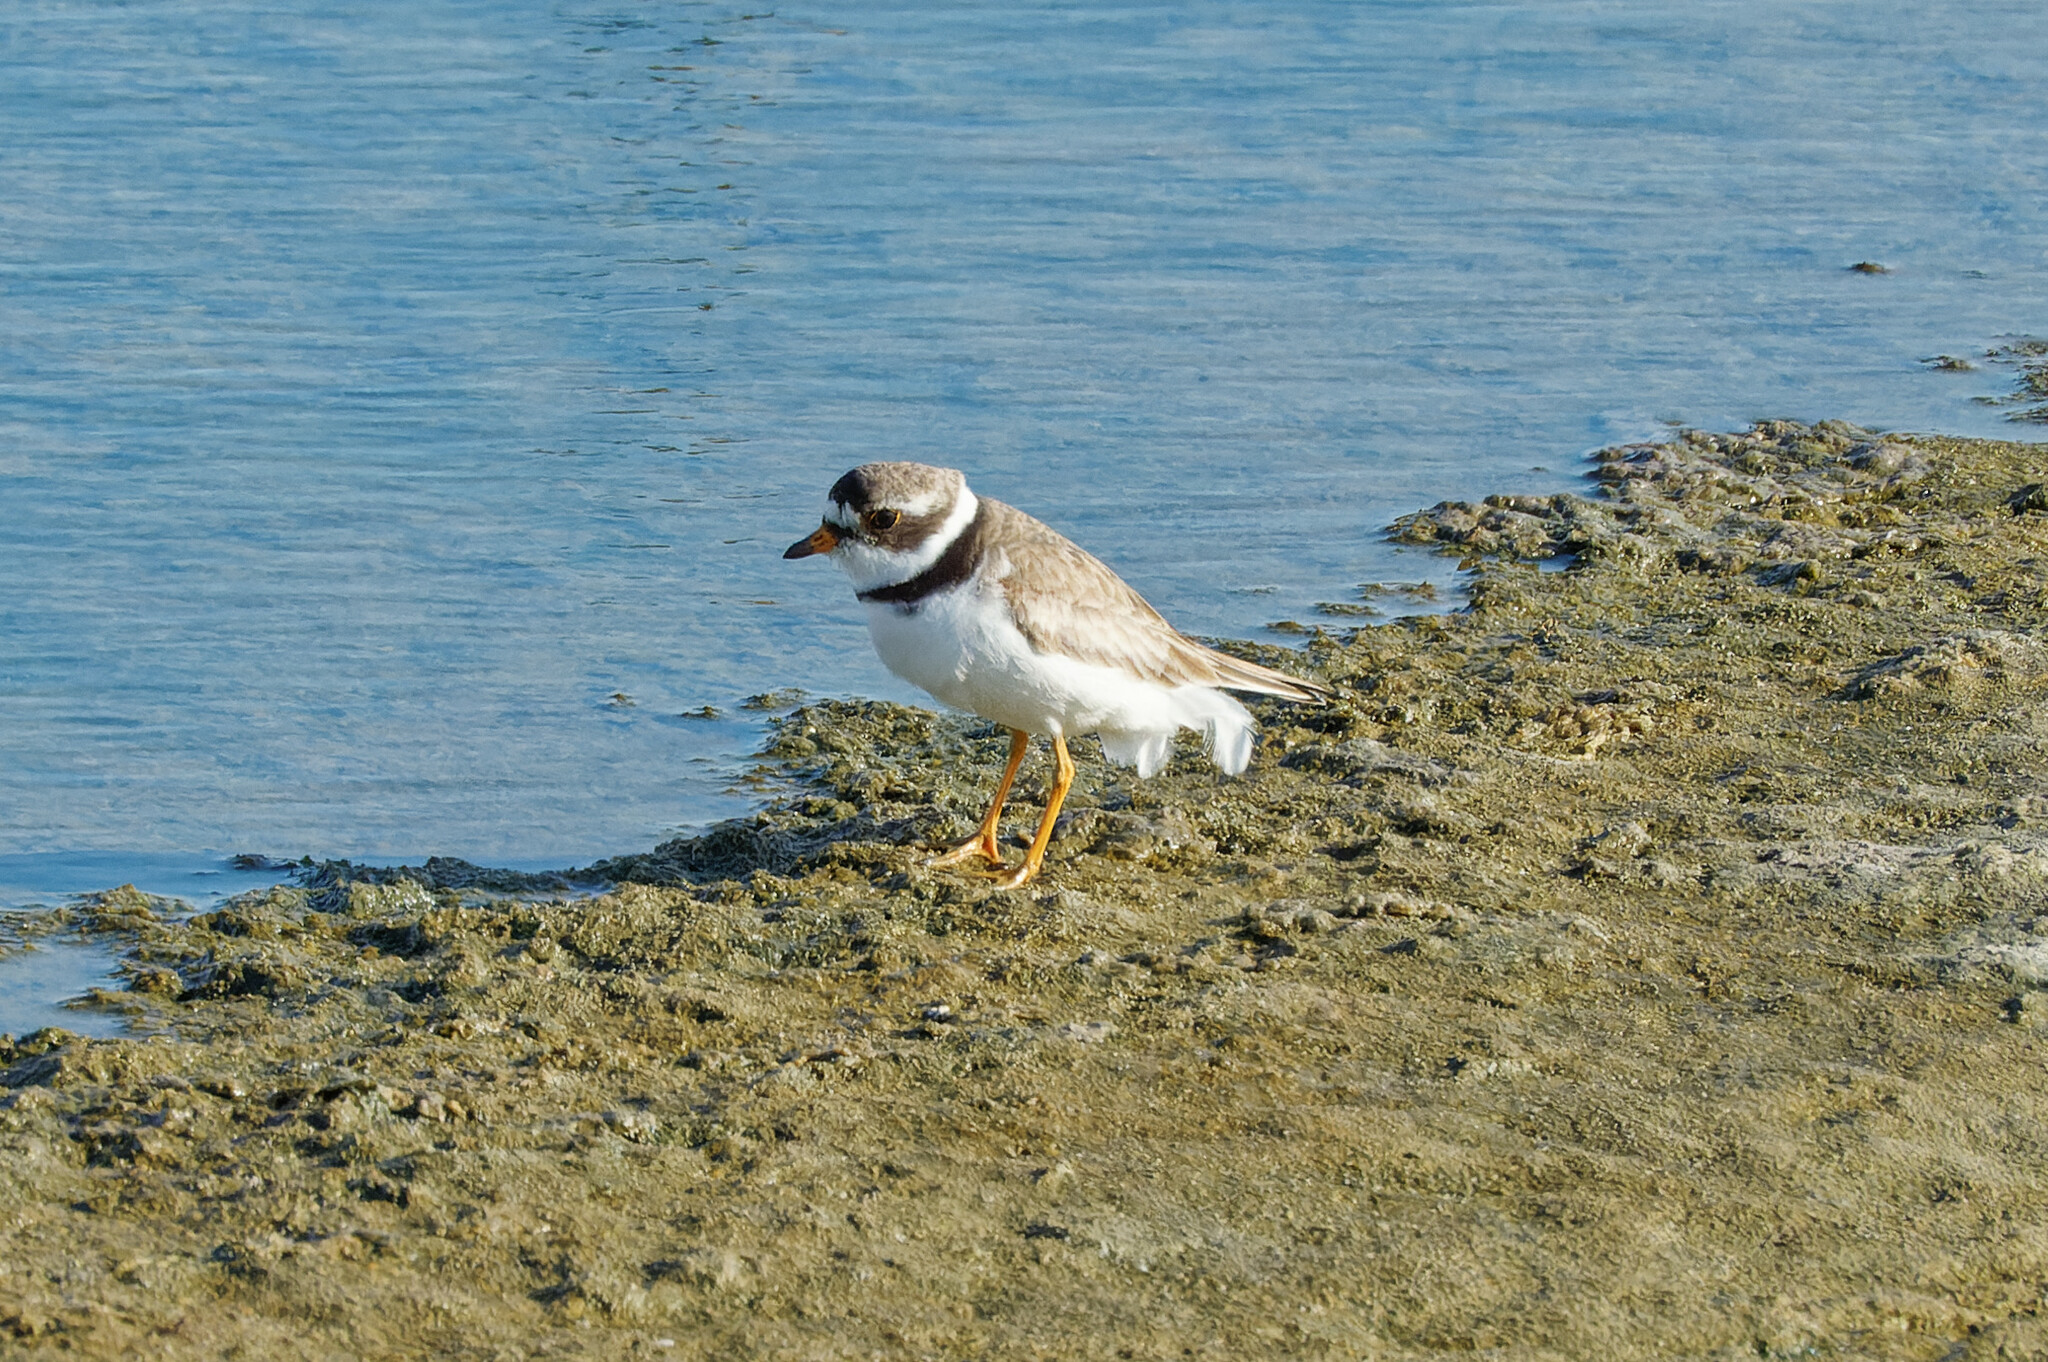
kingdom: Animalia
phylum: Chordata
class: Aves
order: Charadriiformes
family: Charadriidae
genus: Charadrius
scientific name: Charadrius semipalmatus
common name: Semipalmated plover
